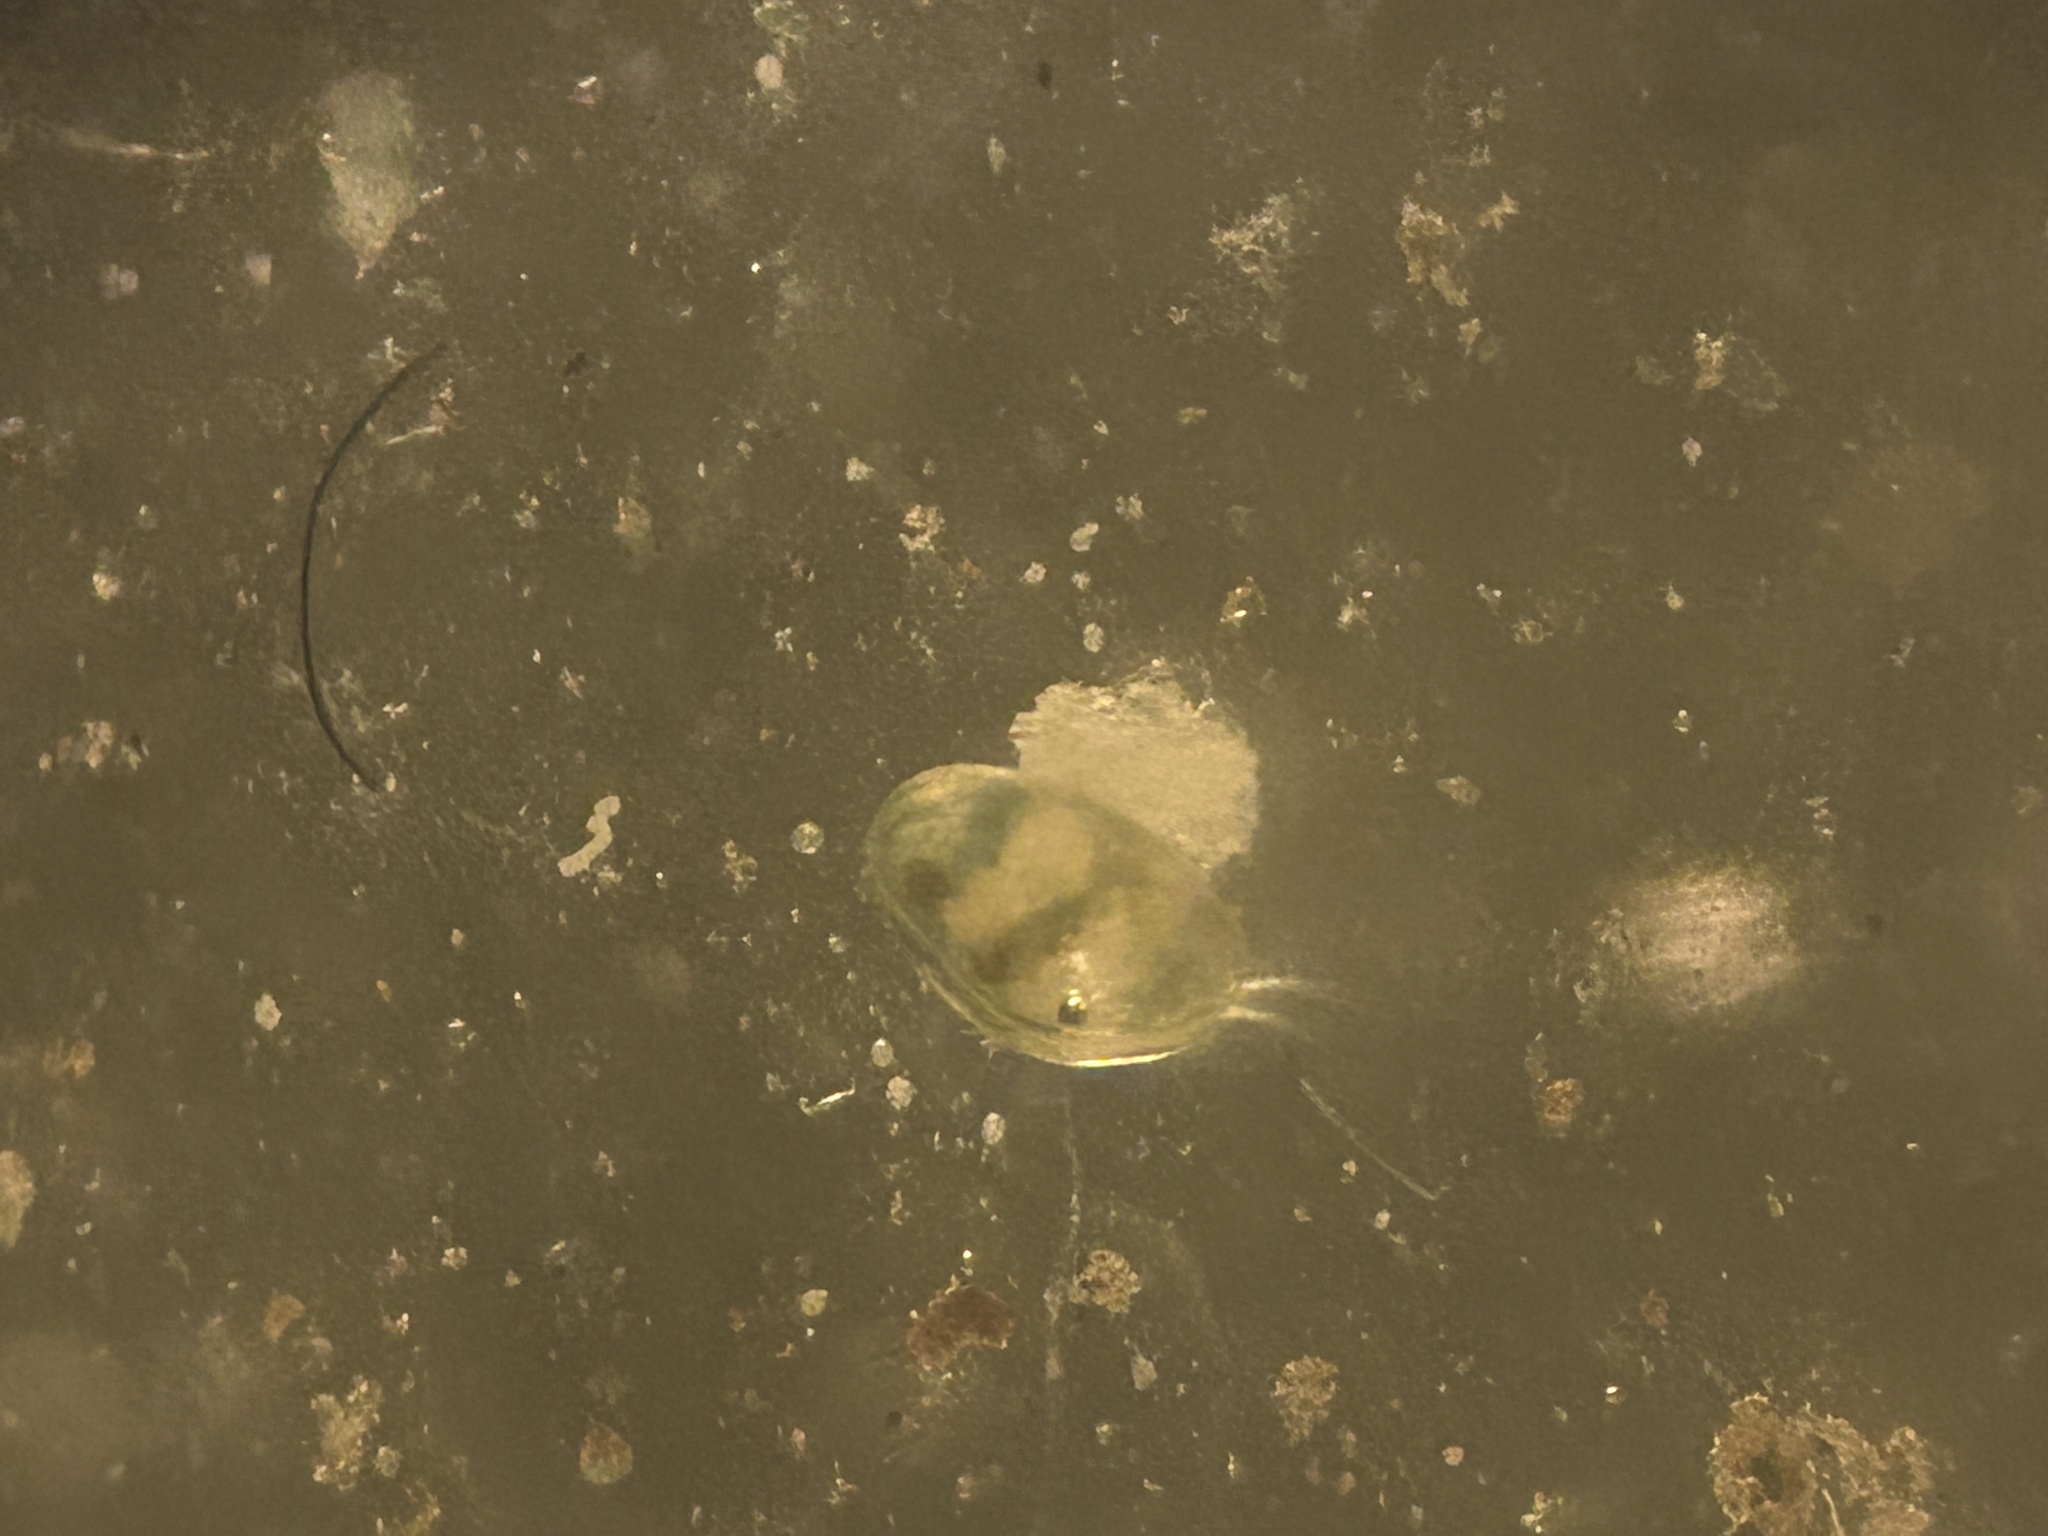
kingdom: Animalia
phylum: Arthropoda
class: Ostracoda
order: Podocopida
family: Cyprididae
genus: Cypridopsis
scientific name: Cypridopsis vidua
